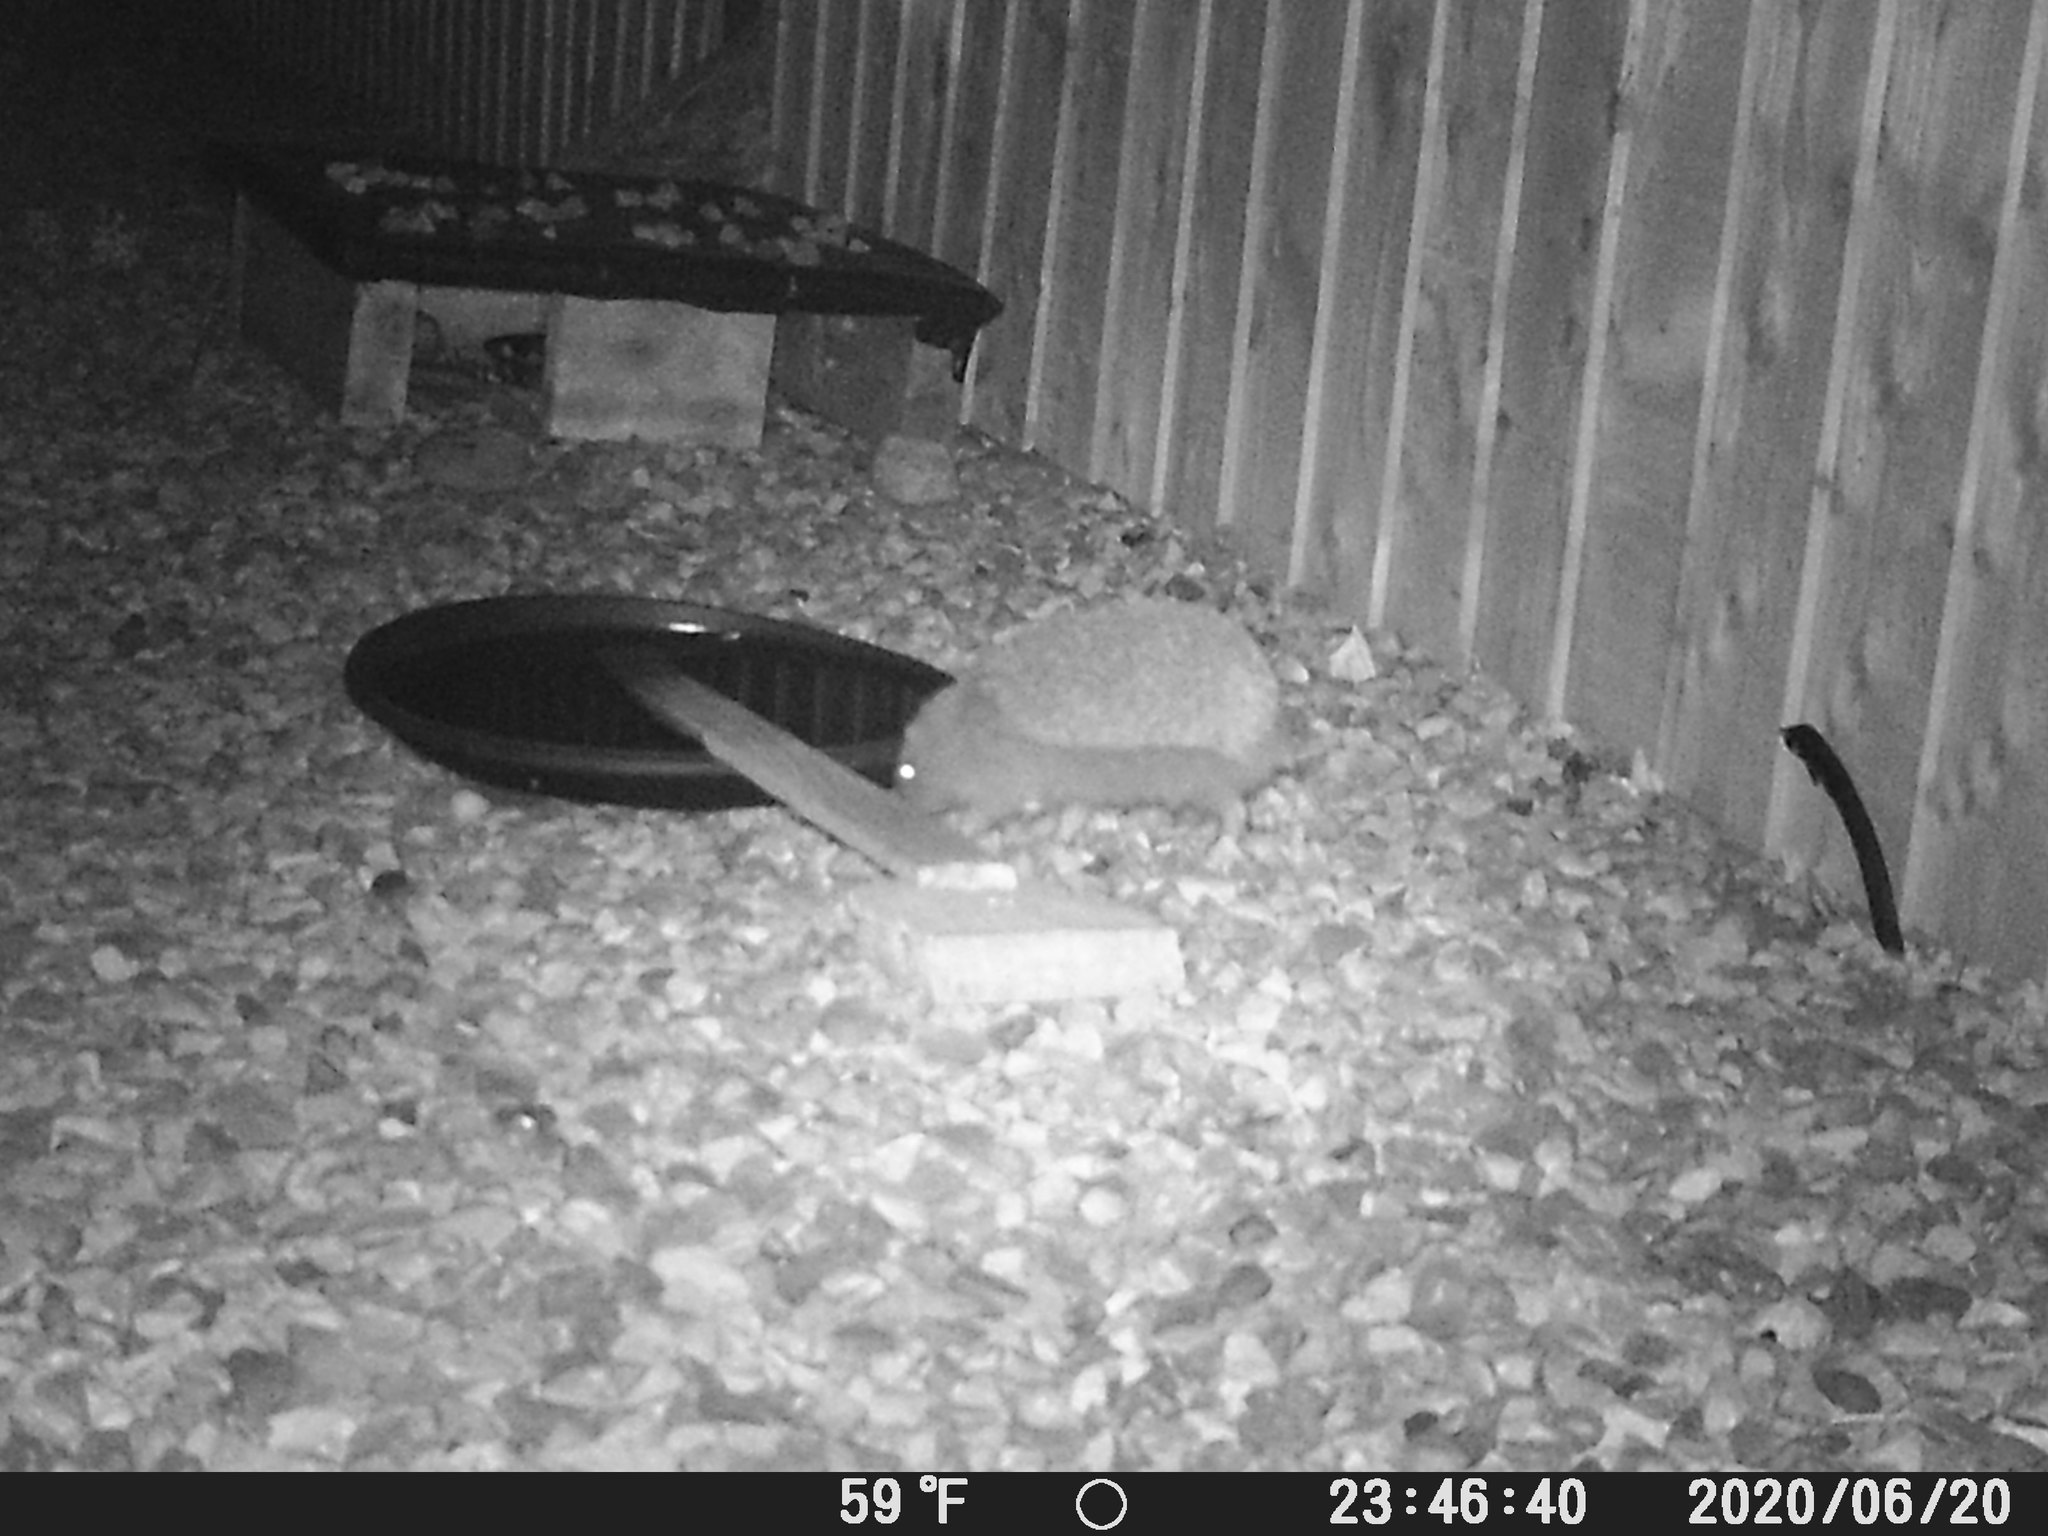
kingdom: Animalia
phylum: Chordata
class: Mammalia
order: Erinaceomorpha
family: Erinaceidae
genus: Erinaceus
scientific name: Erinaceus europaeus
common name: West european hedgehog
